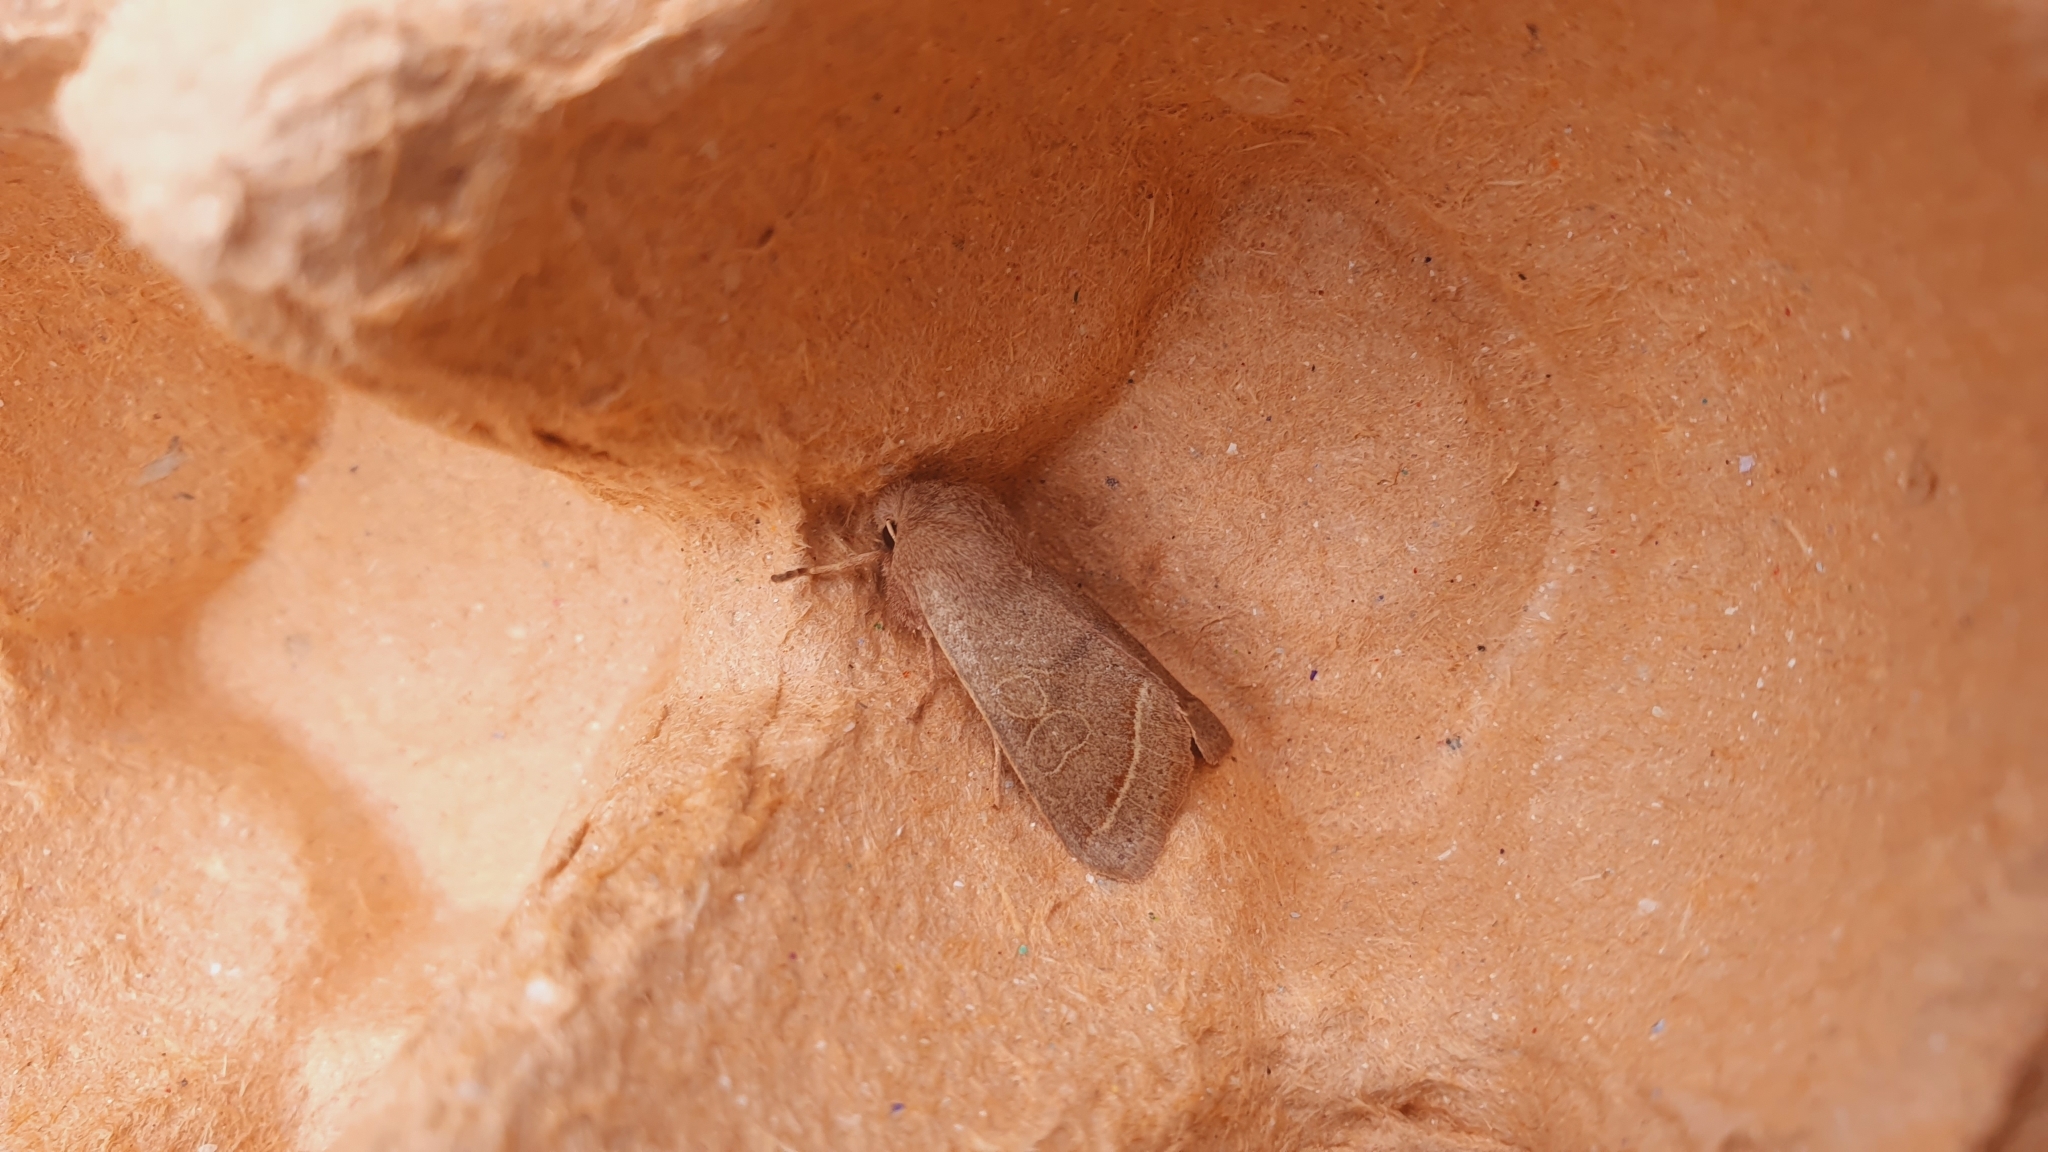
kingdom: Animalia
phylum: Arthropoda
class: Insecta
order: Lepidoptera
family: Noctuidae
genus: Orthosia
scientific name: Orthosia cerasi
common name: Common quaker
